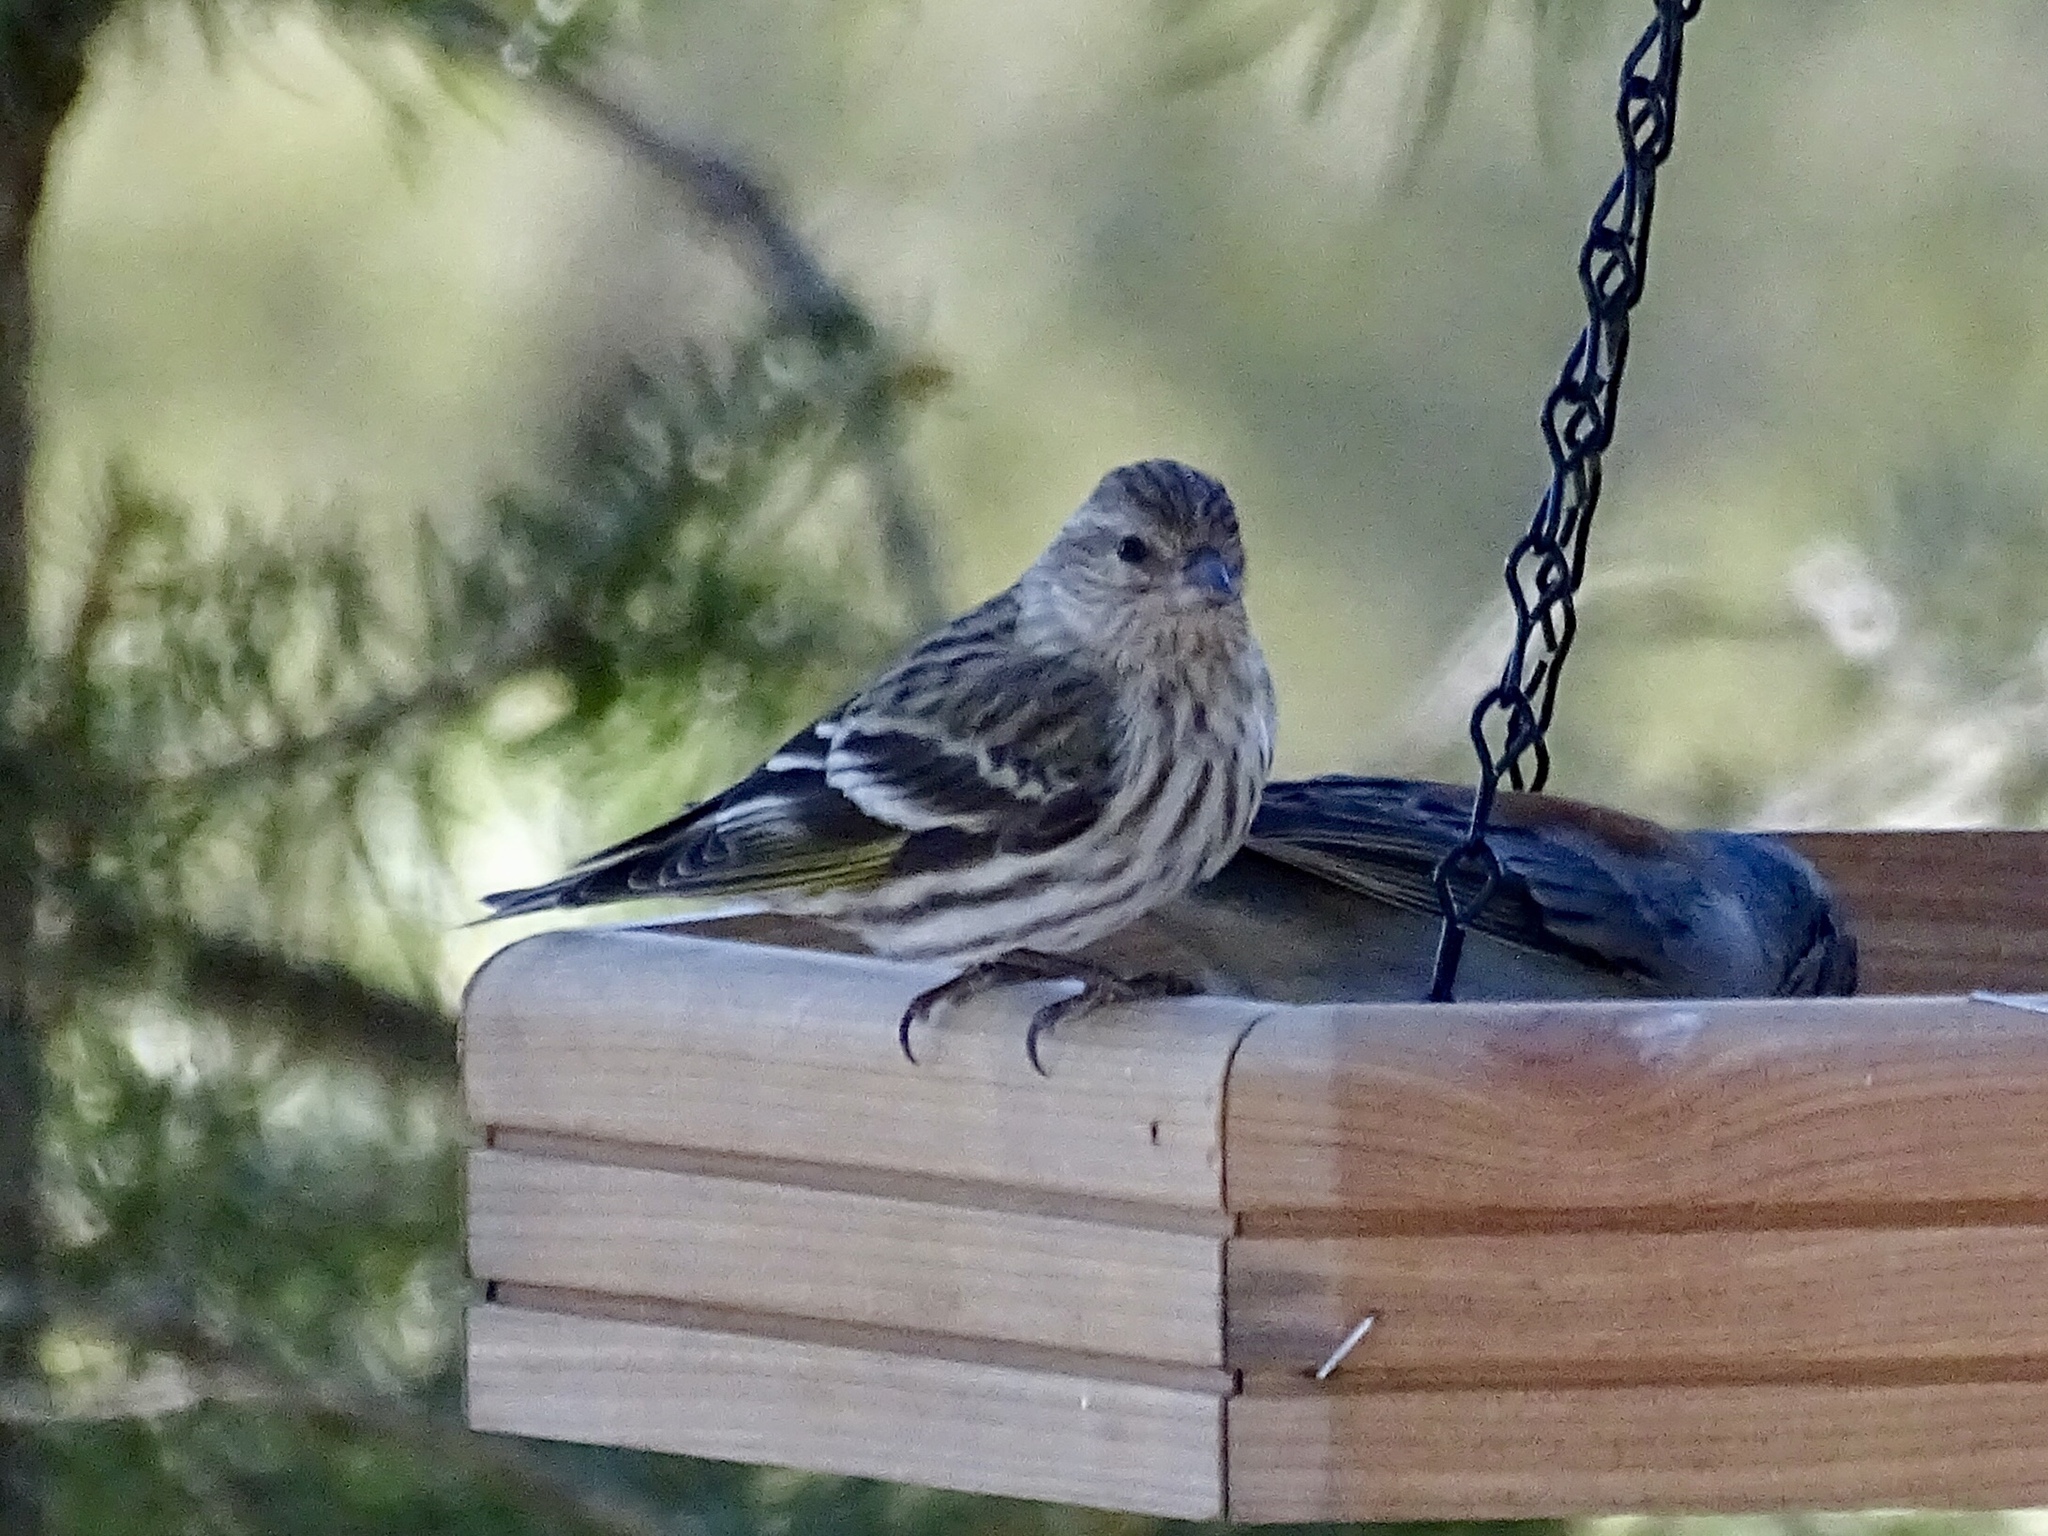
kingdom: Animalia
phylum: Chordata
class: Aves
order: Passeriformes
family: Fringillidae
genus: Spinus
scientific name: Spinus pinus
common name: Pine siskin
